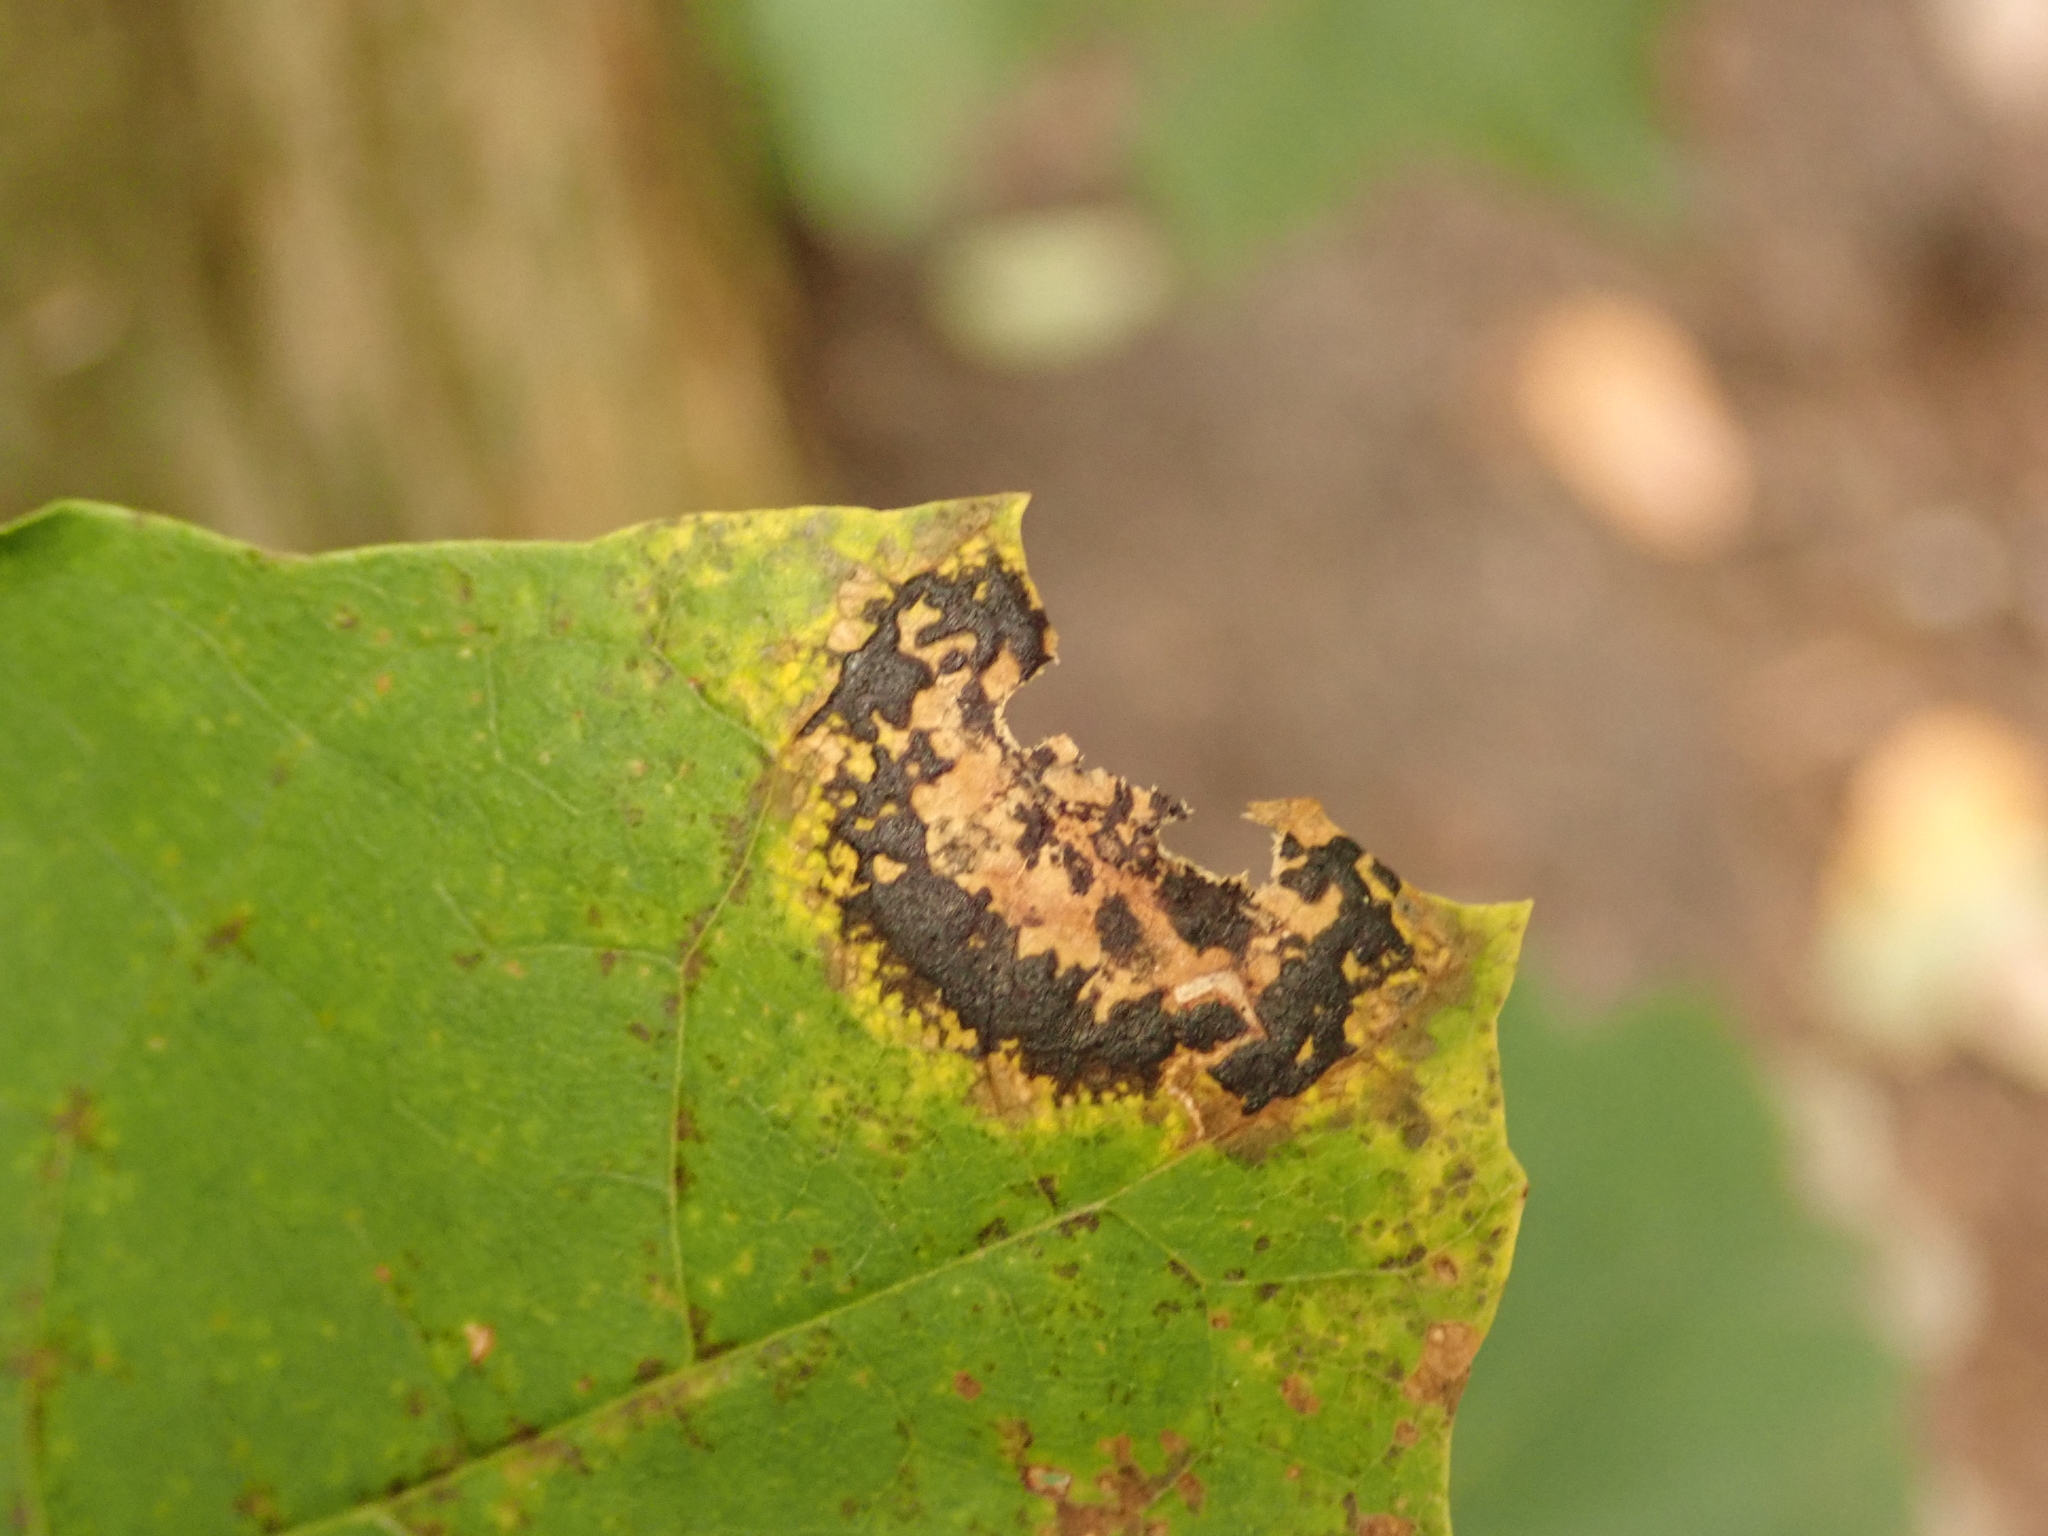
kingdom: Fungi
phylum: Ascomycota
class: Leotiomycetes
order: Rhytismatales
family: Rhytismataceae
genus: Rhytisma
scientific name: Rhytisma acerinum
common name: European tar spot
